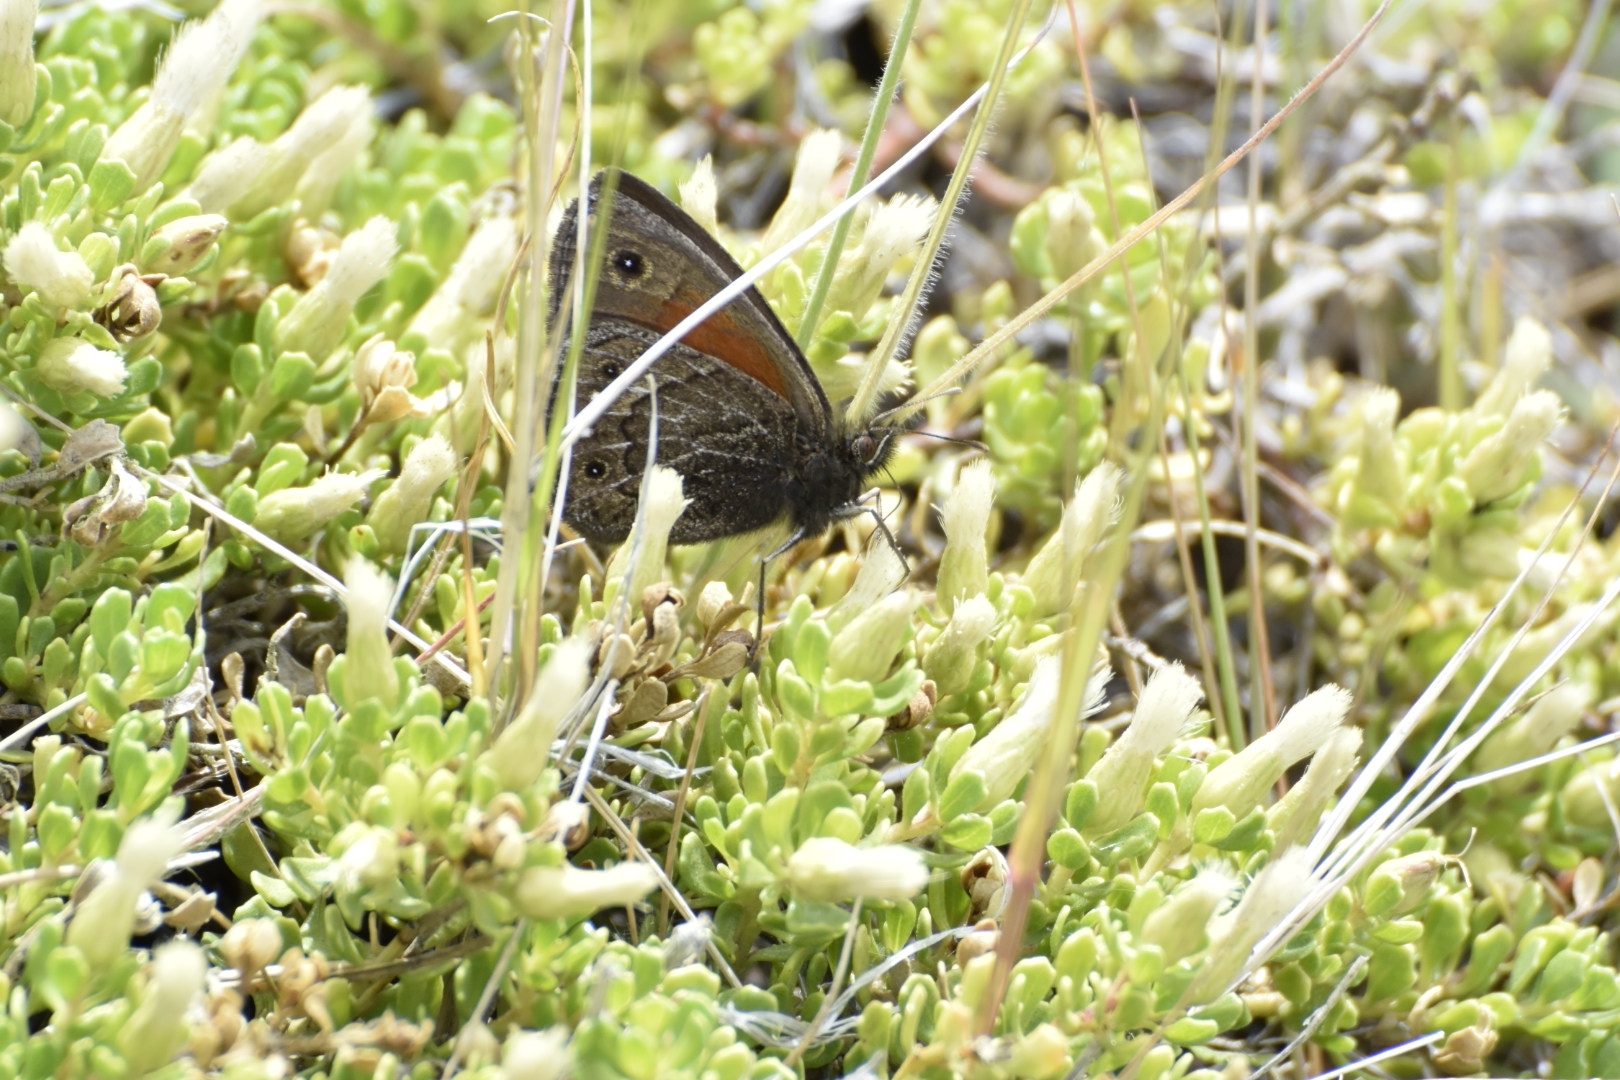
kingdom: Animalia
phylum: Arthropoda
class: Insecta
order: Lepidoptera
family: Nymphalidae
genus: Cosmosatyrus
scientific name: Cosmosatyrus leptoneuroides
